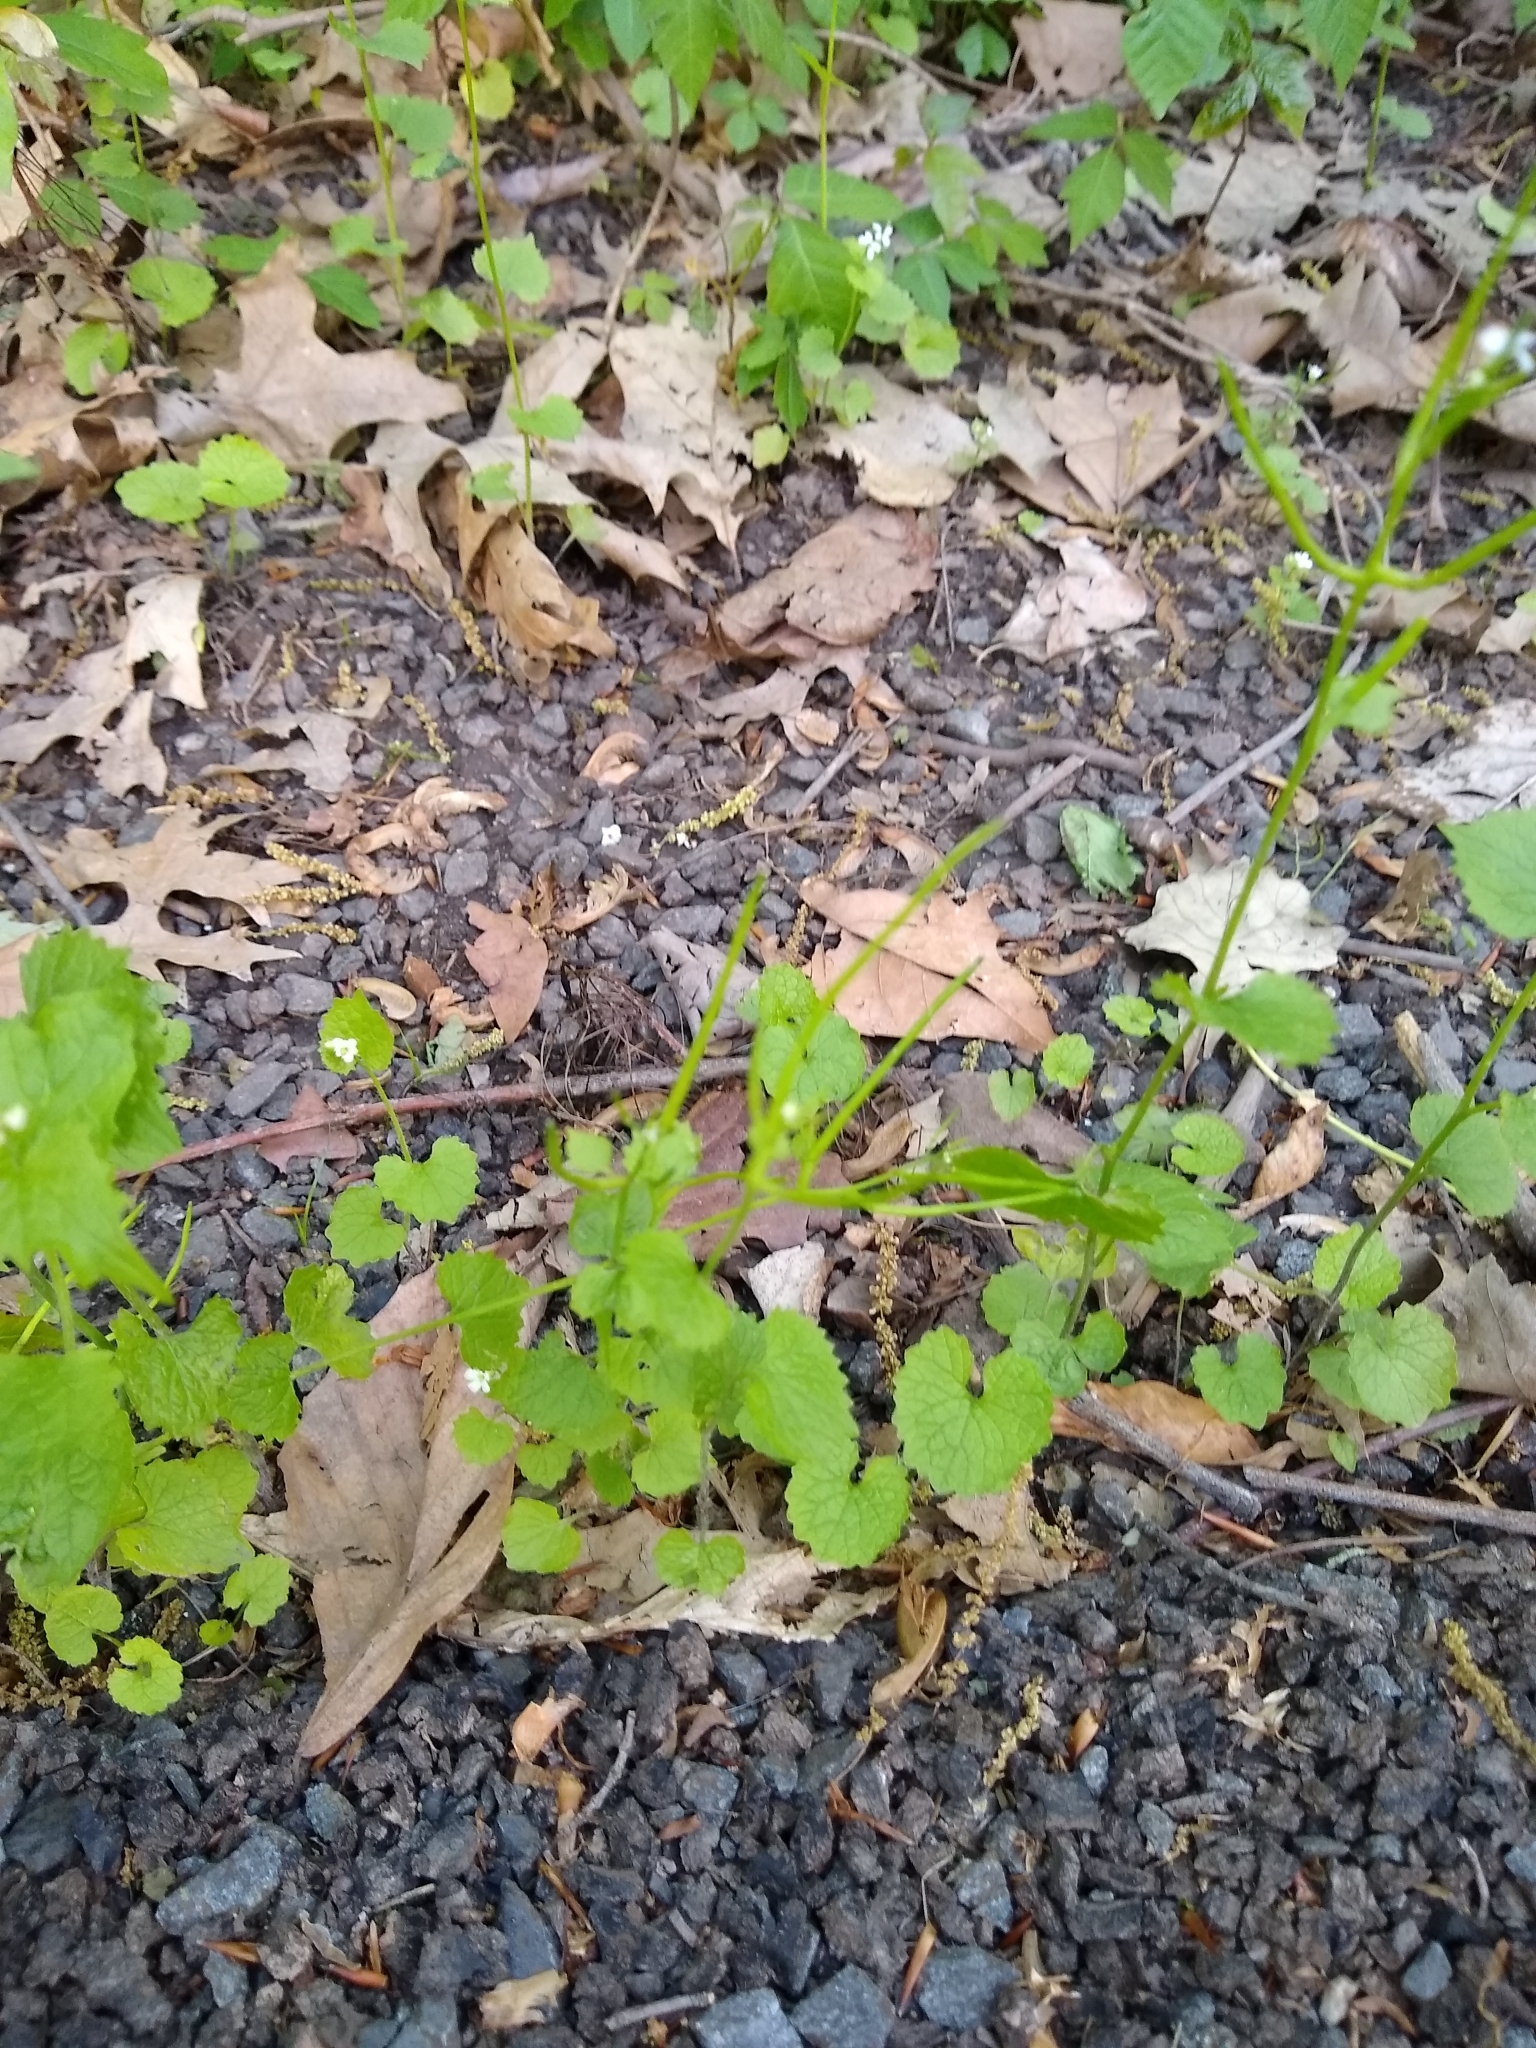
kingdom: Plantae
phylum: Tracheophyta
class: Magnoliopsida
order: Brassicales
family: Brassicaceae
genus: Alliaria
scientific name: Alliaria petiolata
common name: Garlic mustard
